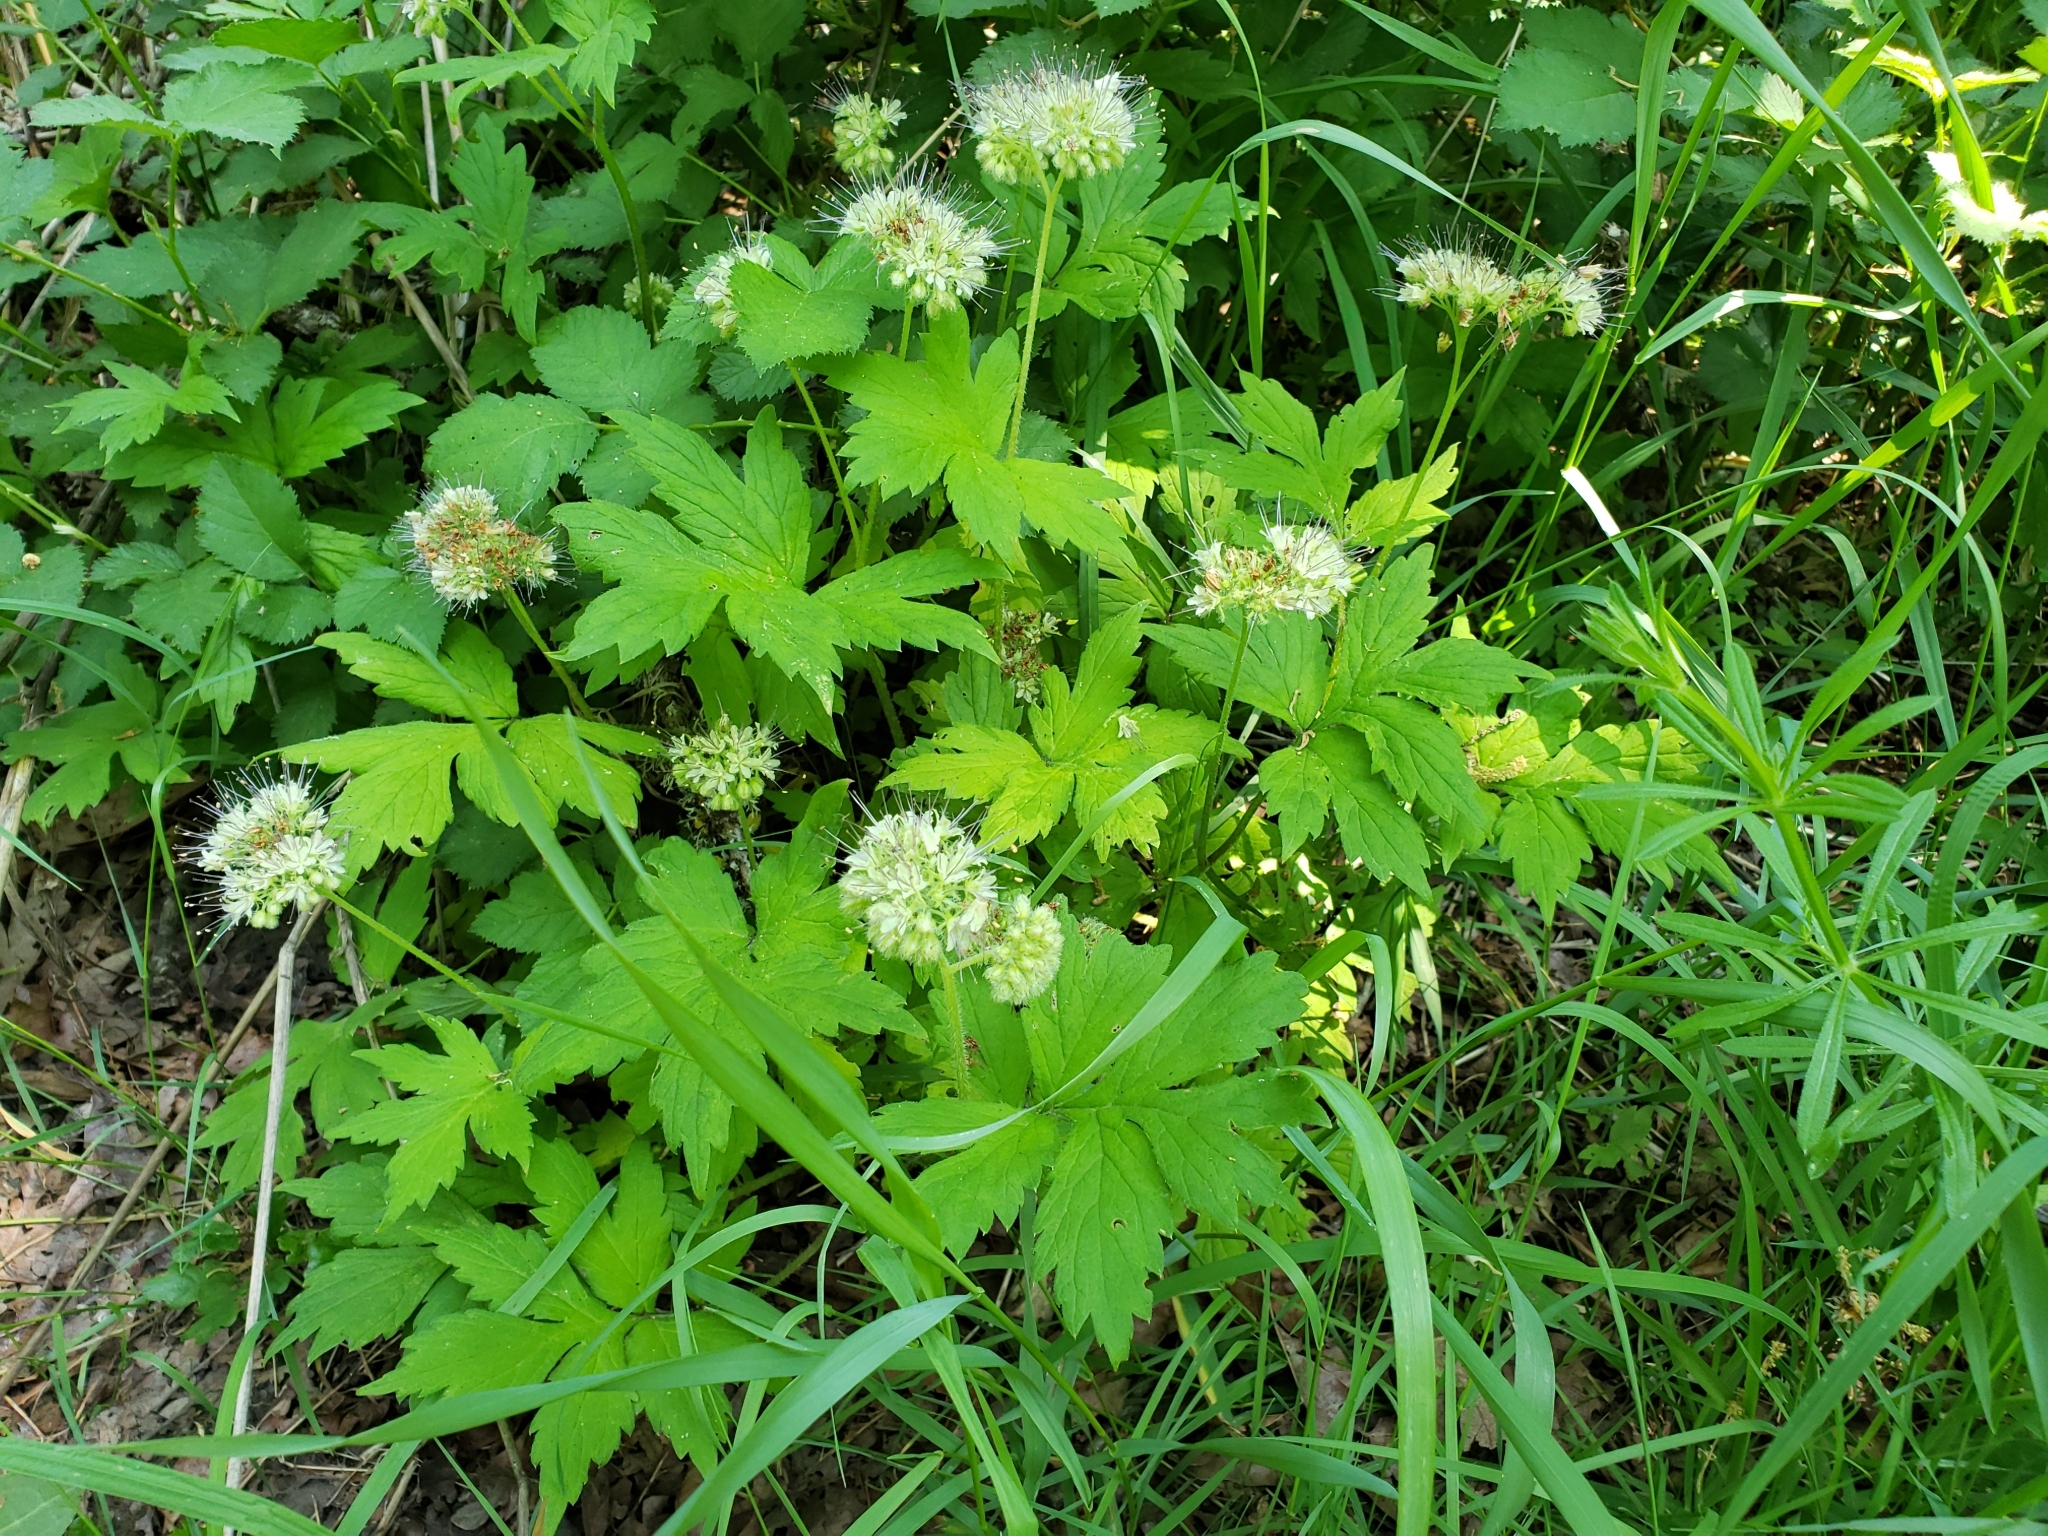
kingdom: Plantae
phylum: Tracheophyta
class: Magnoliopsida
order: Boraginales
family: Hydrophyllaceae
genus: Hydrophyllum
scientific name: Hydrophyllum tenuipes
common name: Pacific waterleaf
